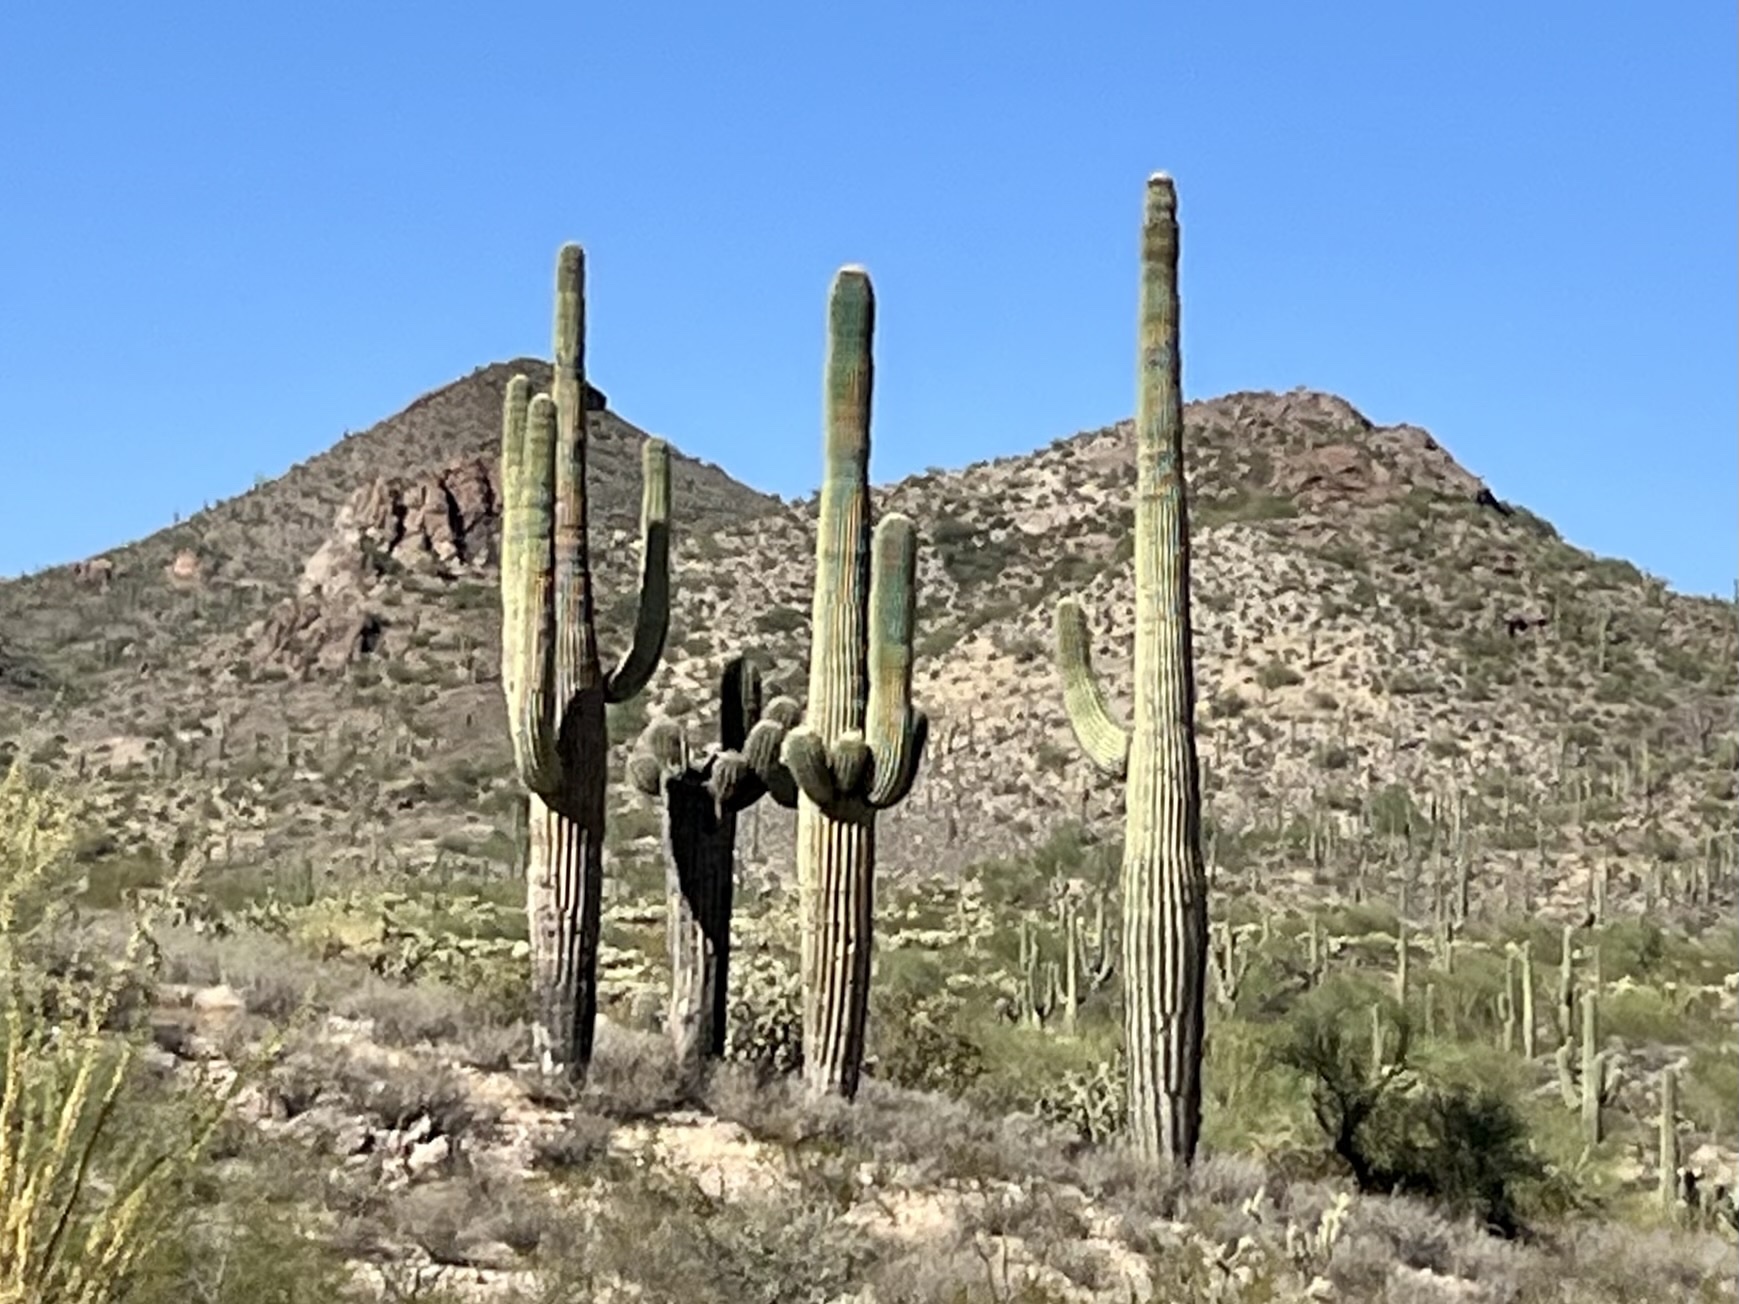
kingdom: Plantae
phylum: Tracheophyta
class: Magnoliopsida
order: Caryophyllales
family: Cactaceae
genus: Carnegiea
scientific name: Carnegiea gigantea
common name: Saguaro
